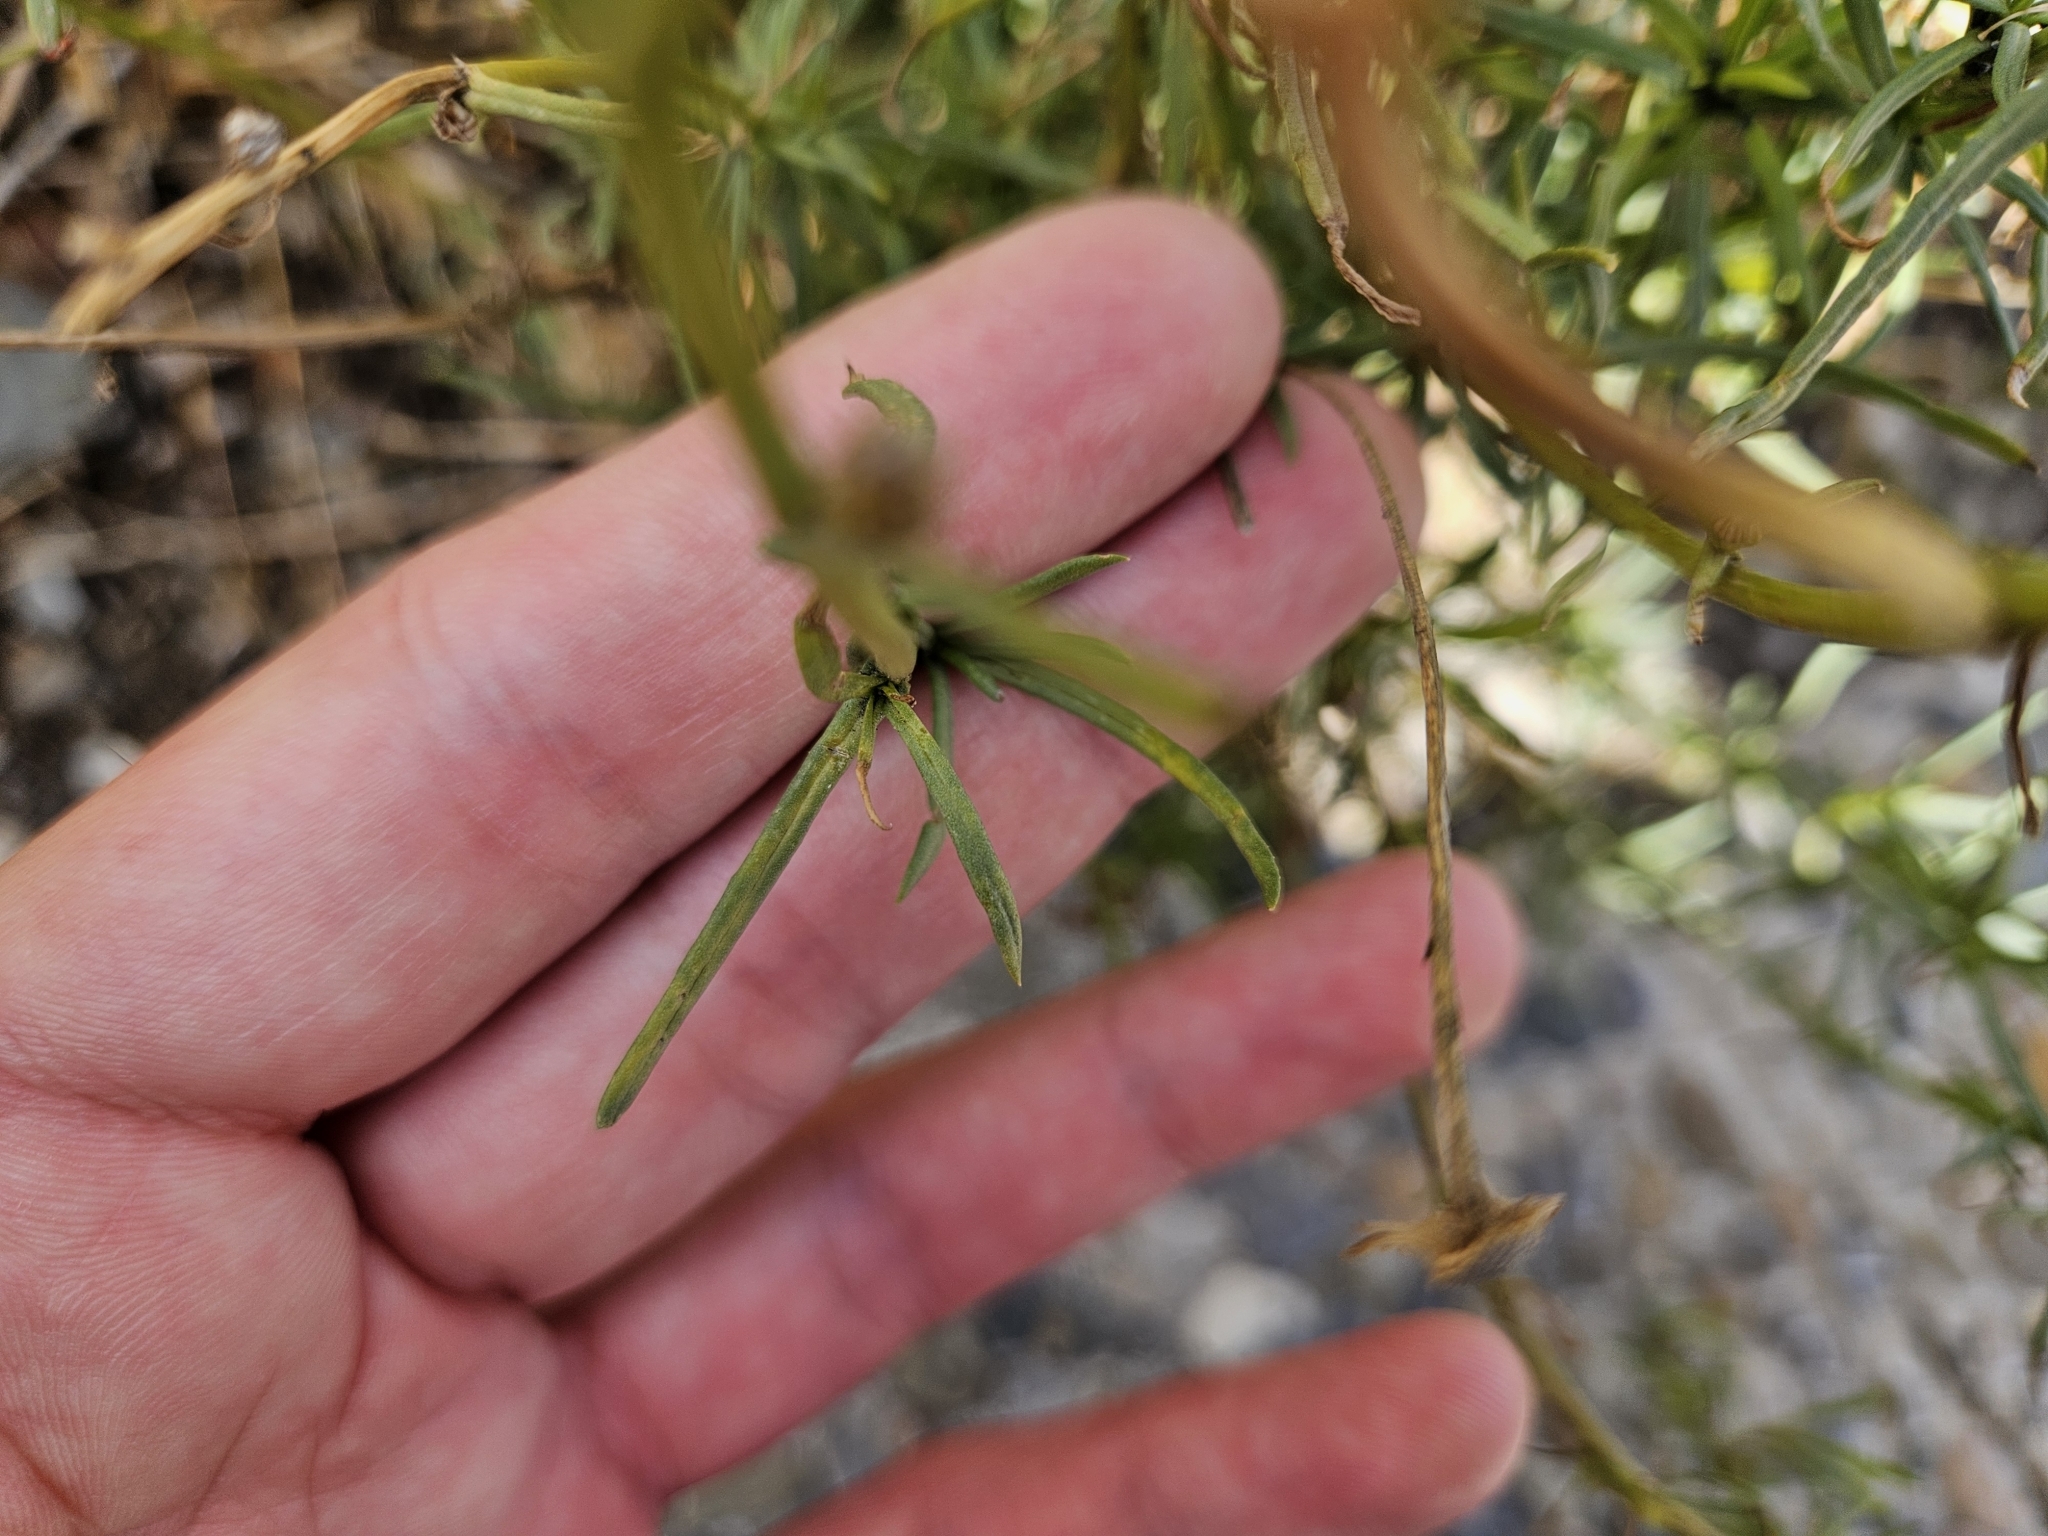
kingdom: Plantae
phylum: Tracheophyta
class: Magnoliopsida
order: Asterales
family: Asteraceae
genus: Senecio
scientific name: Senecio inaequidens
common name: Narrow-leaved ragwort
